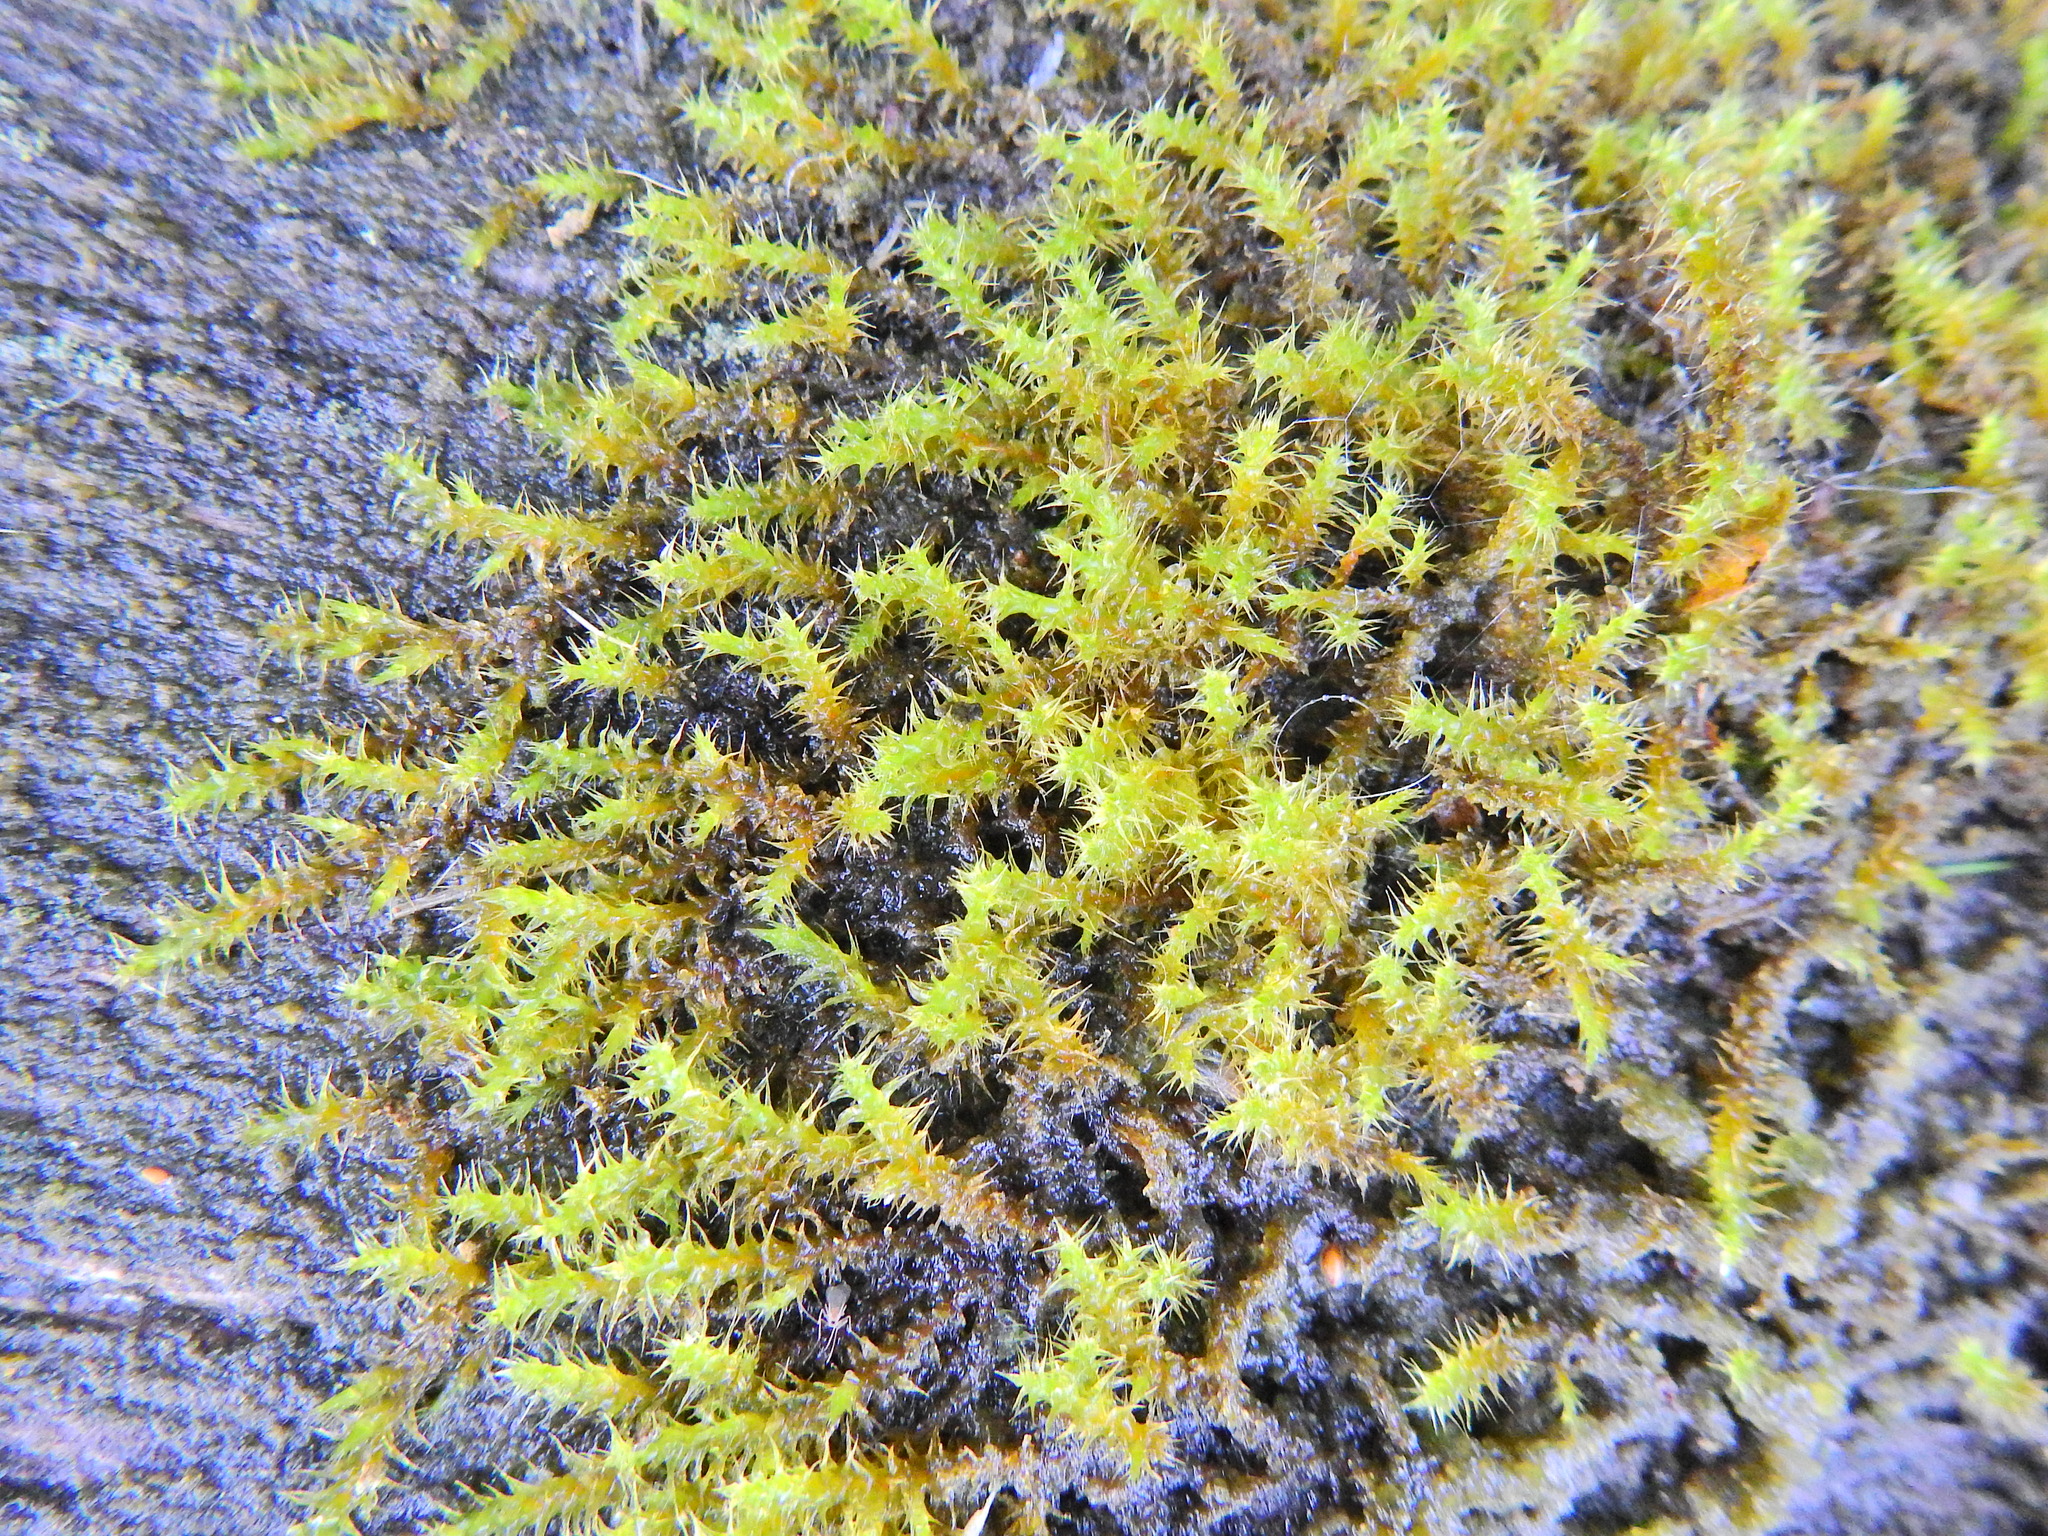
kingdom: Plantae
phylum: Bryophyta
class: Bryopsida
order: Hypnales
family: Hylocomiaceae
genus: Rhytidiadelphus
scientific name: Rhytidiadelphus squarrosus
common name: Springy turf-moss
